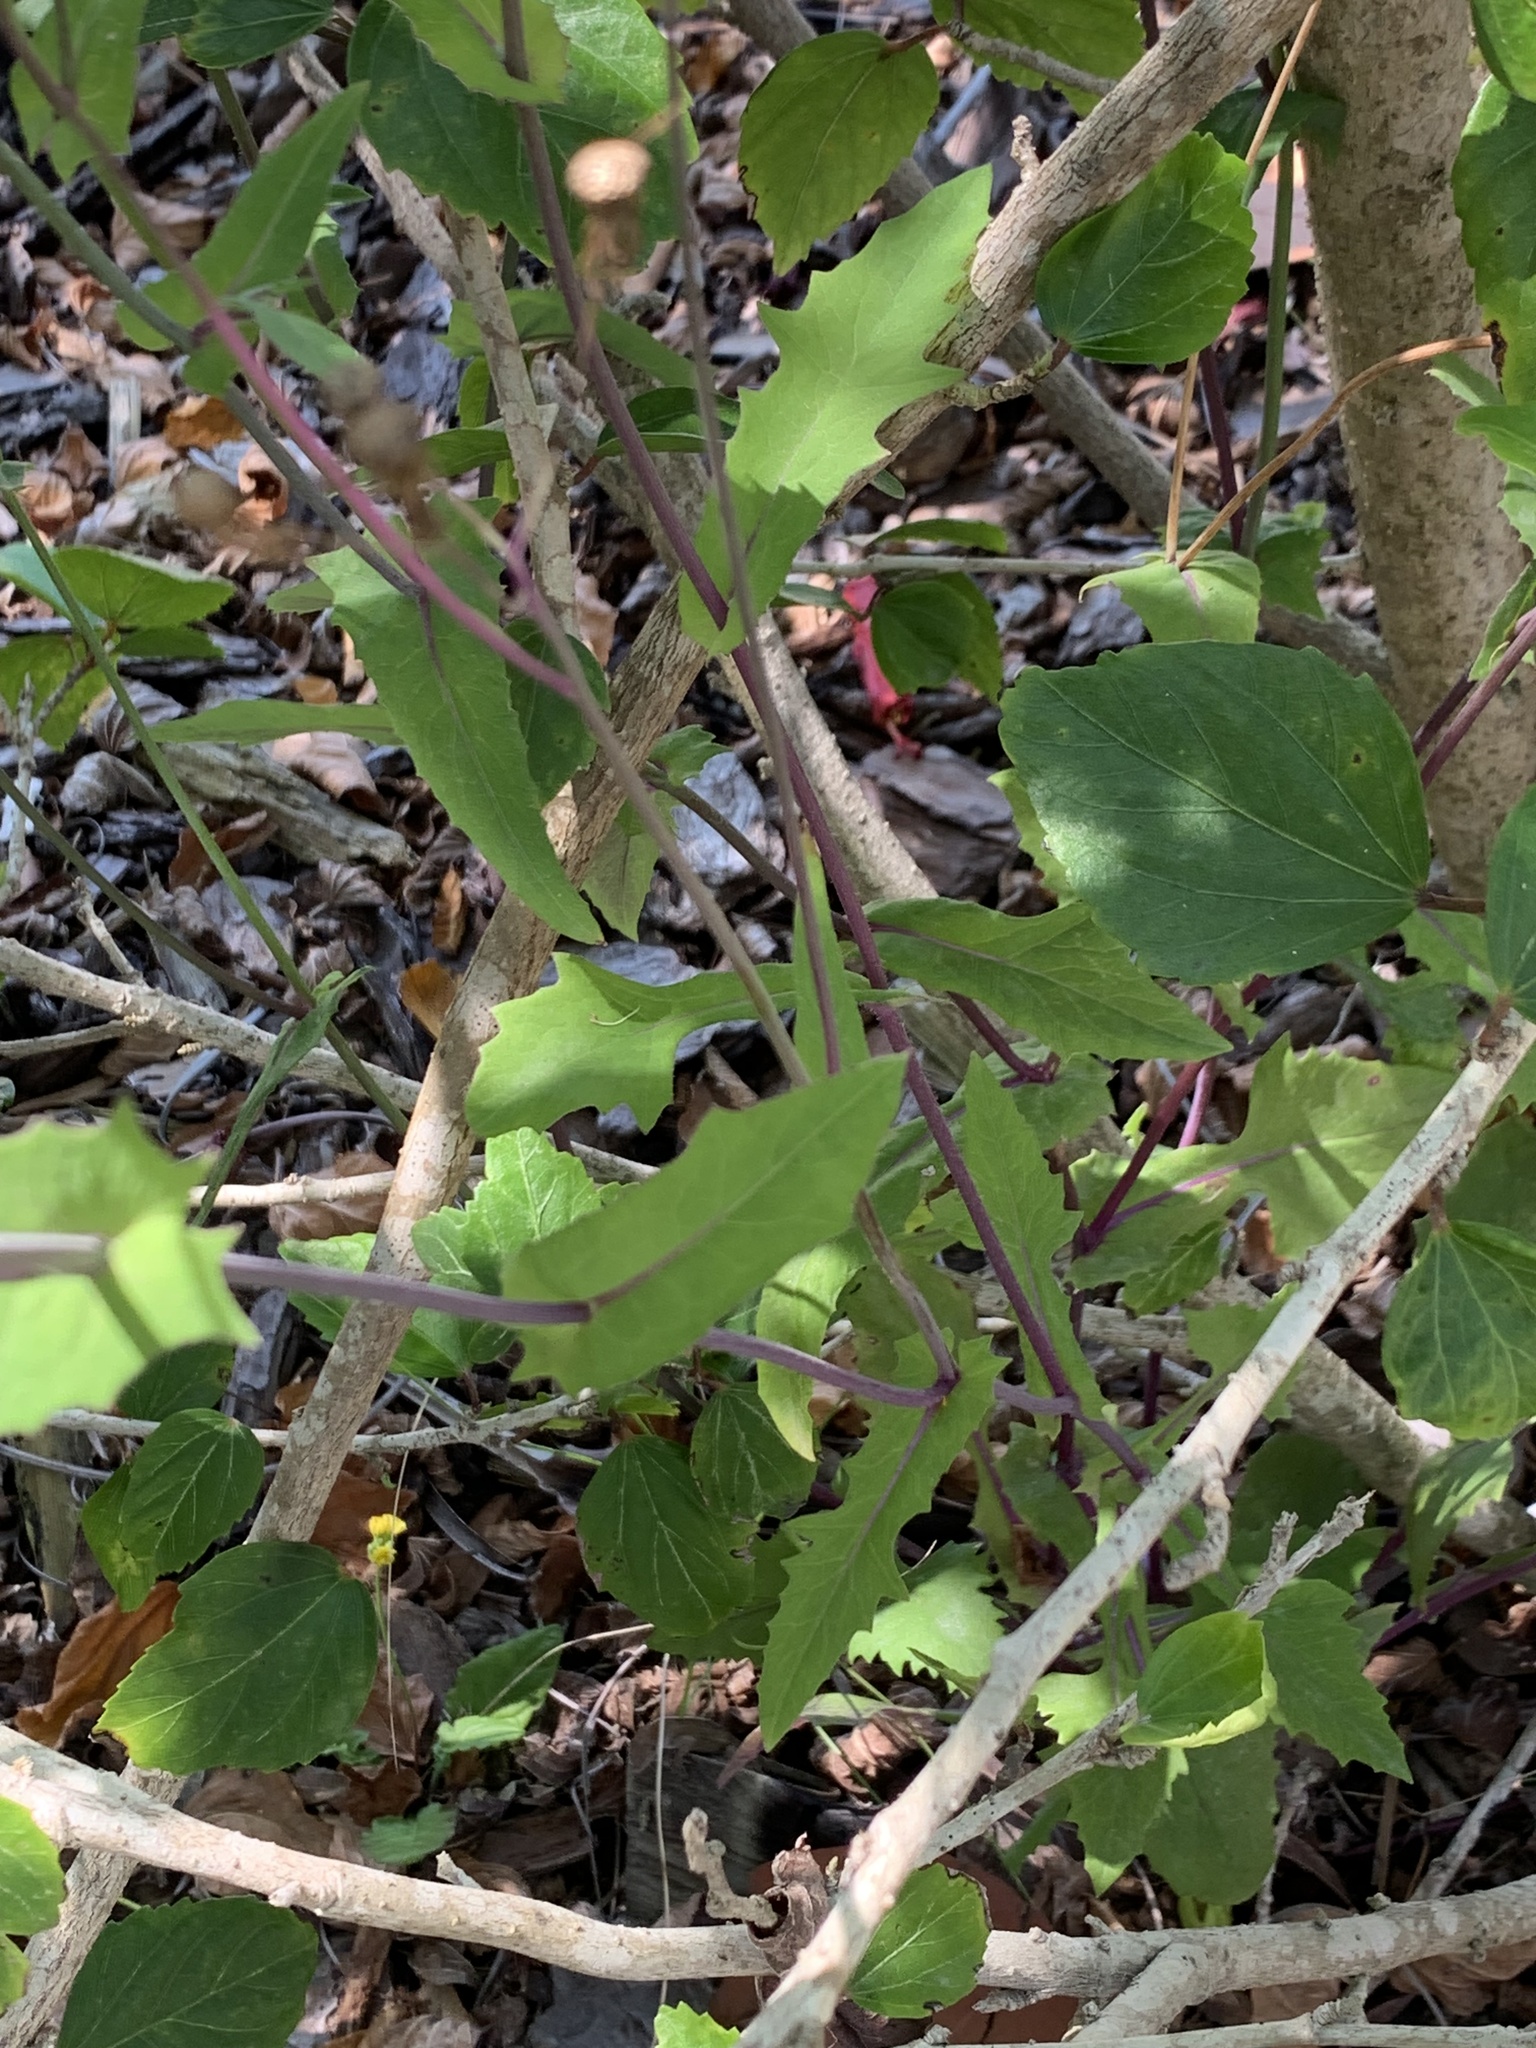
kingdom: Plantae
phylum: Tracheophyta
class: Magnoliopsida
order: Asterales
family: Asteraceae
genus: Emilia
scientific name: Emilia sonchifolia
